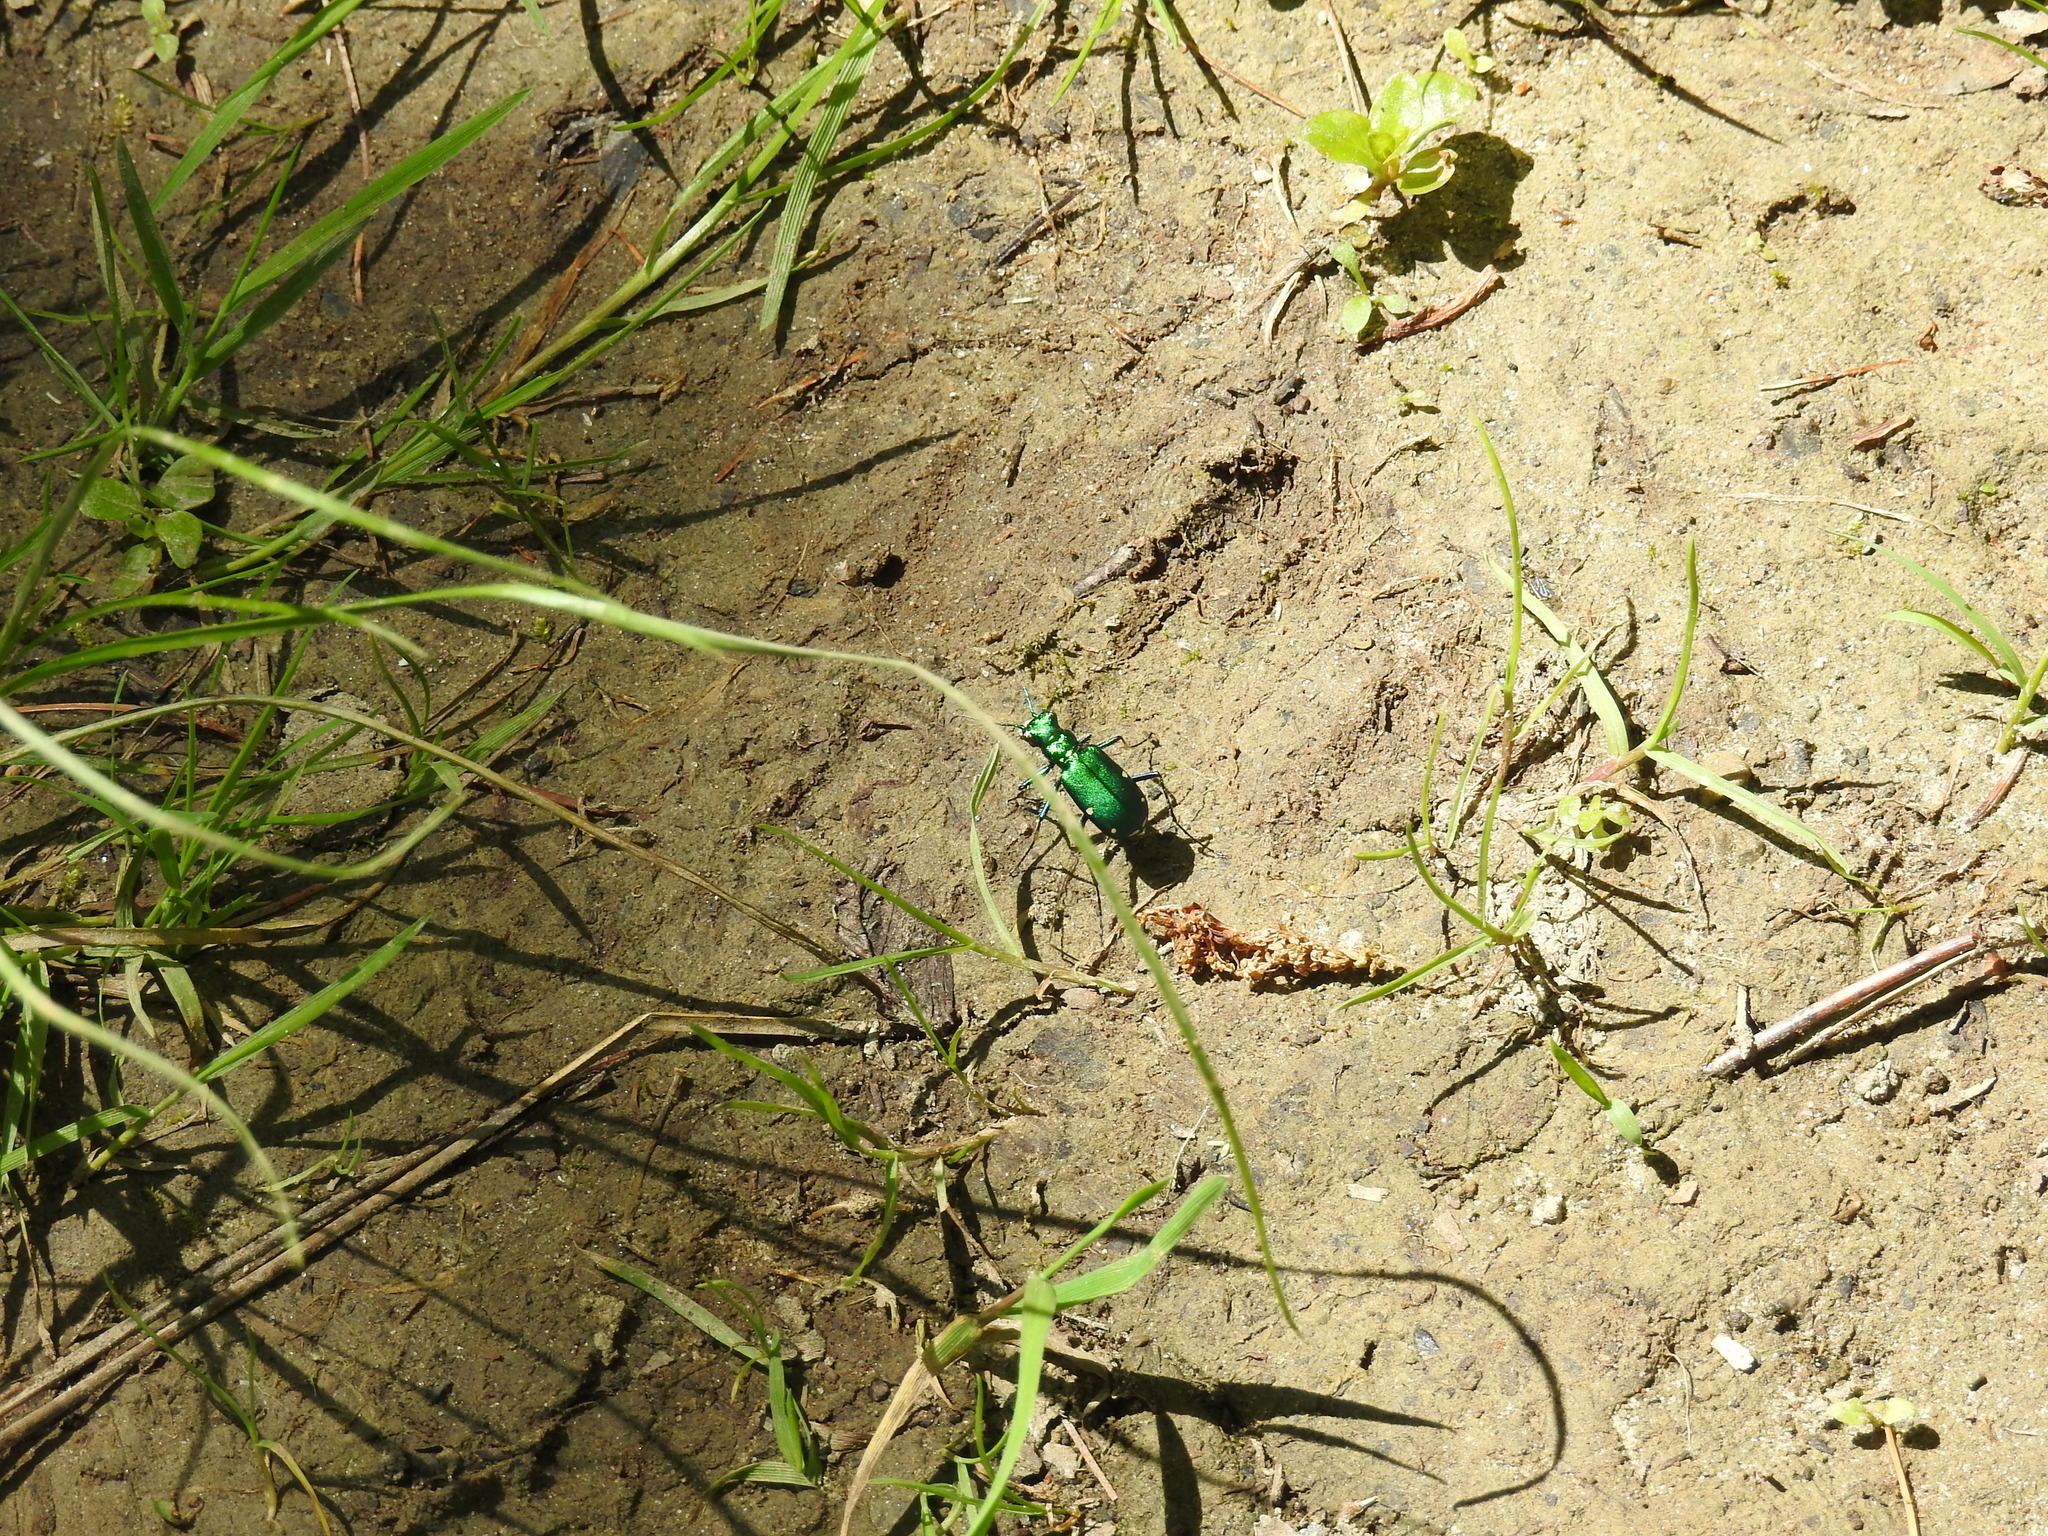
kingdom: Animalia
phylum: Arthropoda
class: Insecta
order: Coleoptera
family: Carabidae
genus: Cicindela
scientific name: Cicindela sexguttata
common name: Six-spotted tiger beetle
